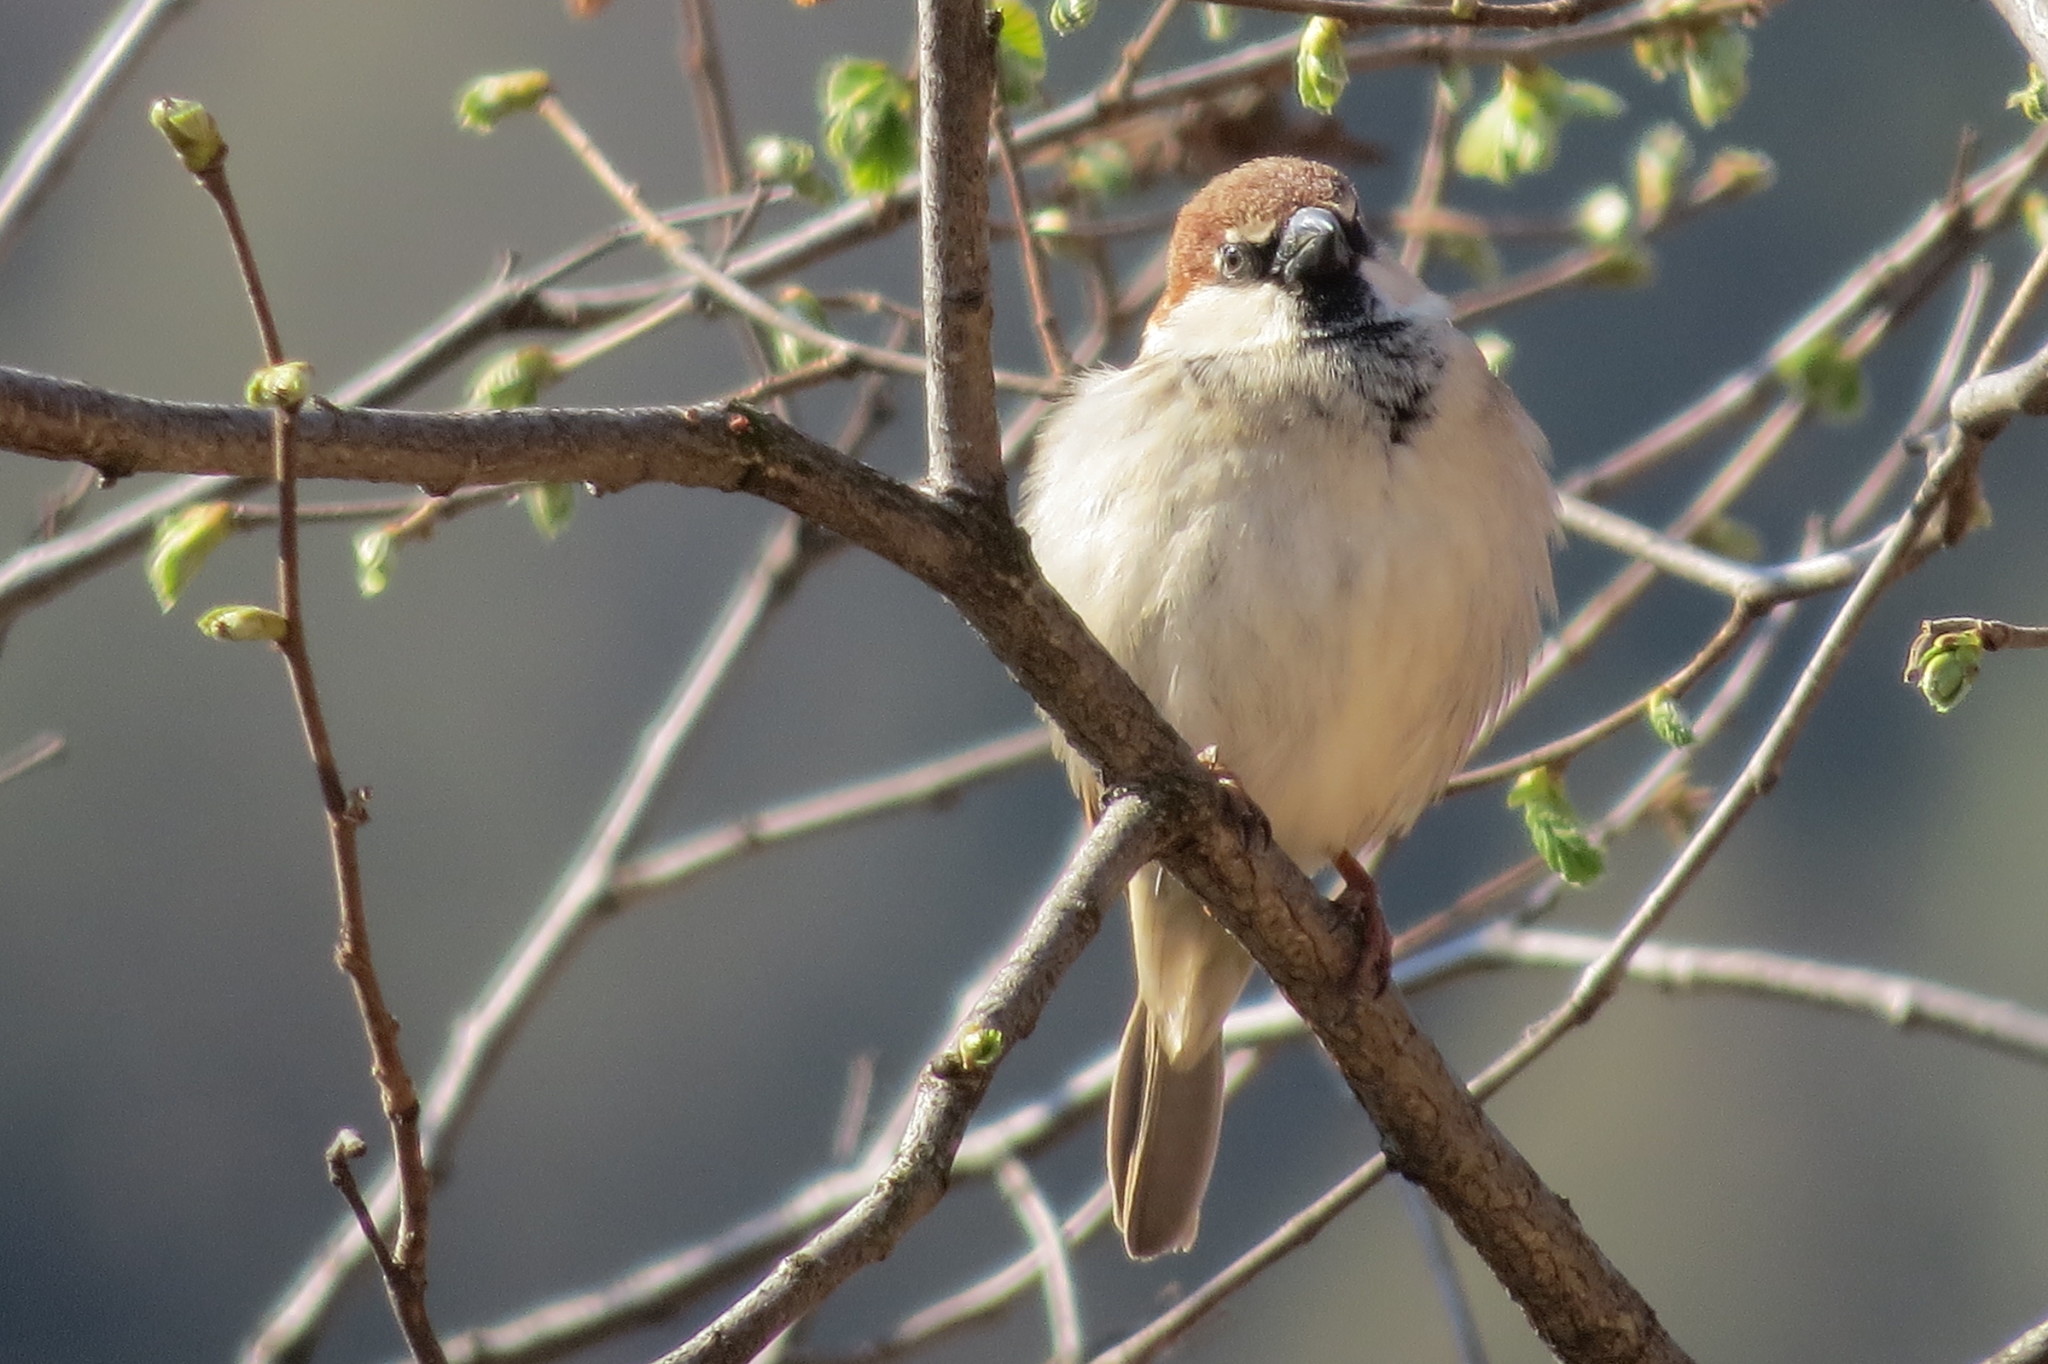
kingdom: Animalia
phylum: Chordata
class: Aves
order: Passeriformes
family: Passeridae
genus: Passer
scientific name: Passer italiae
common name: Italian sparrow
